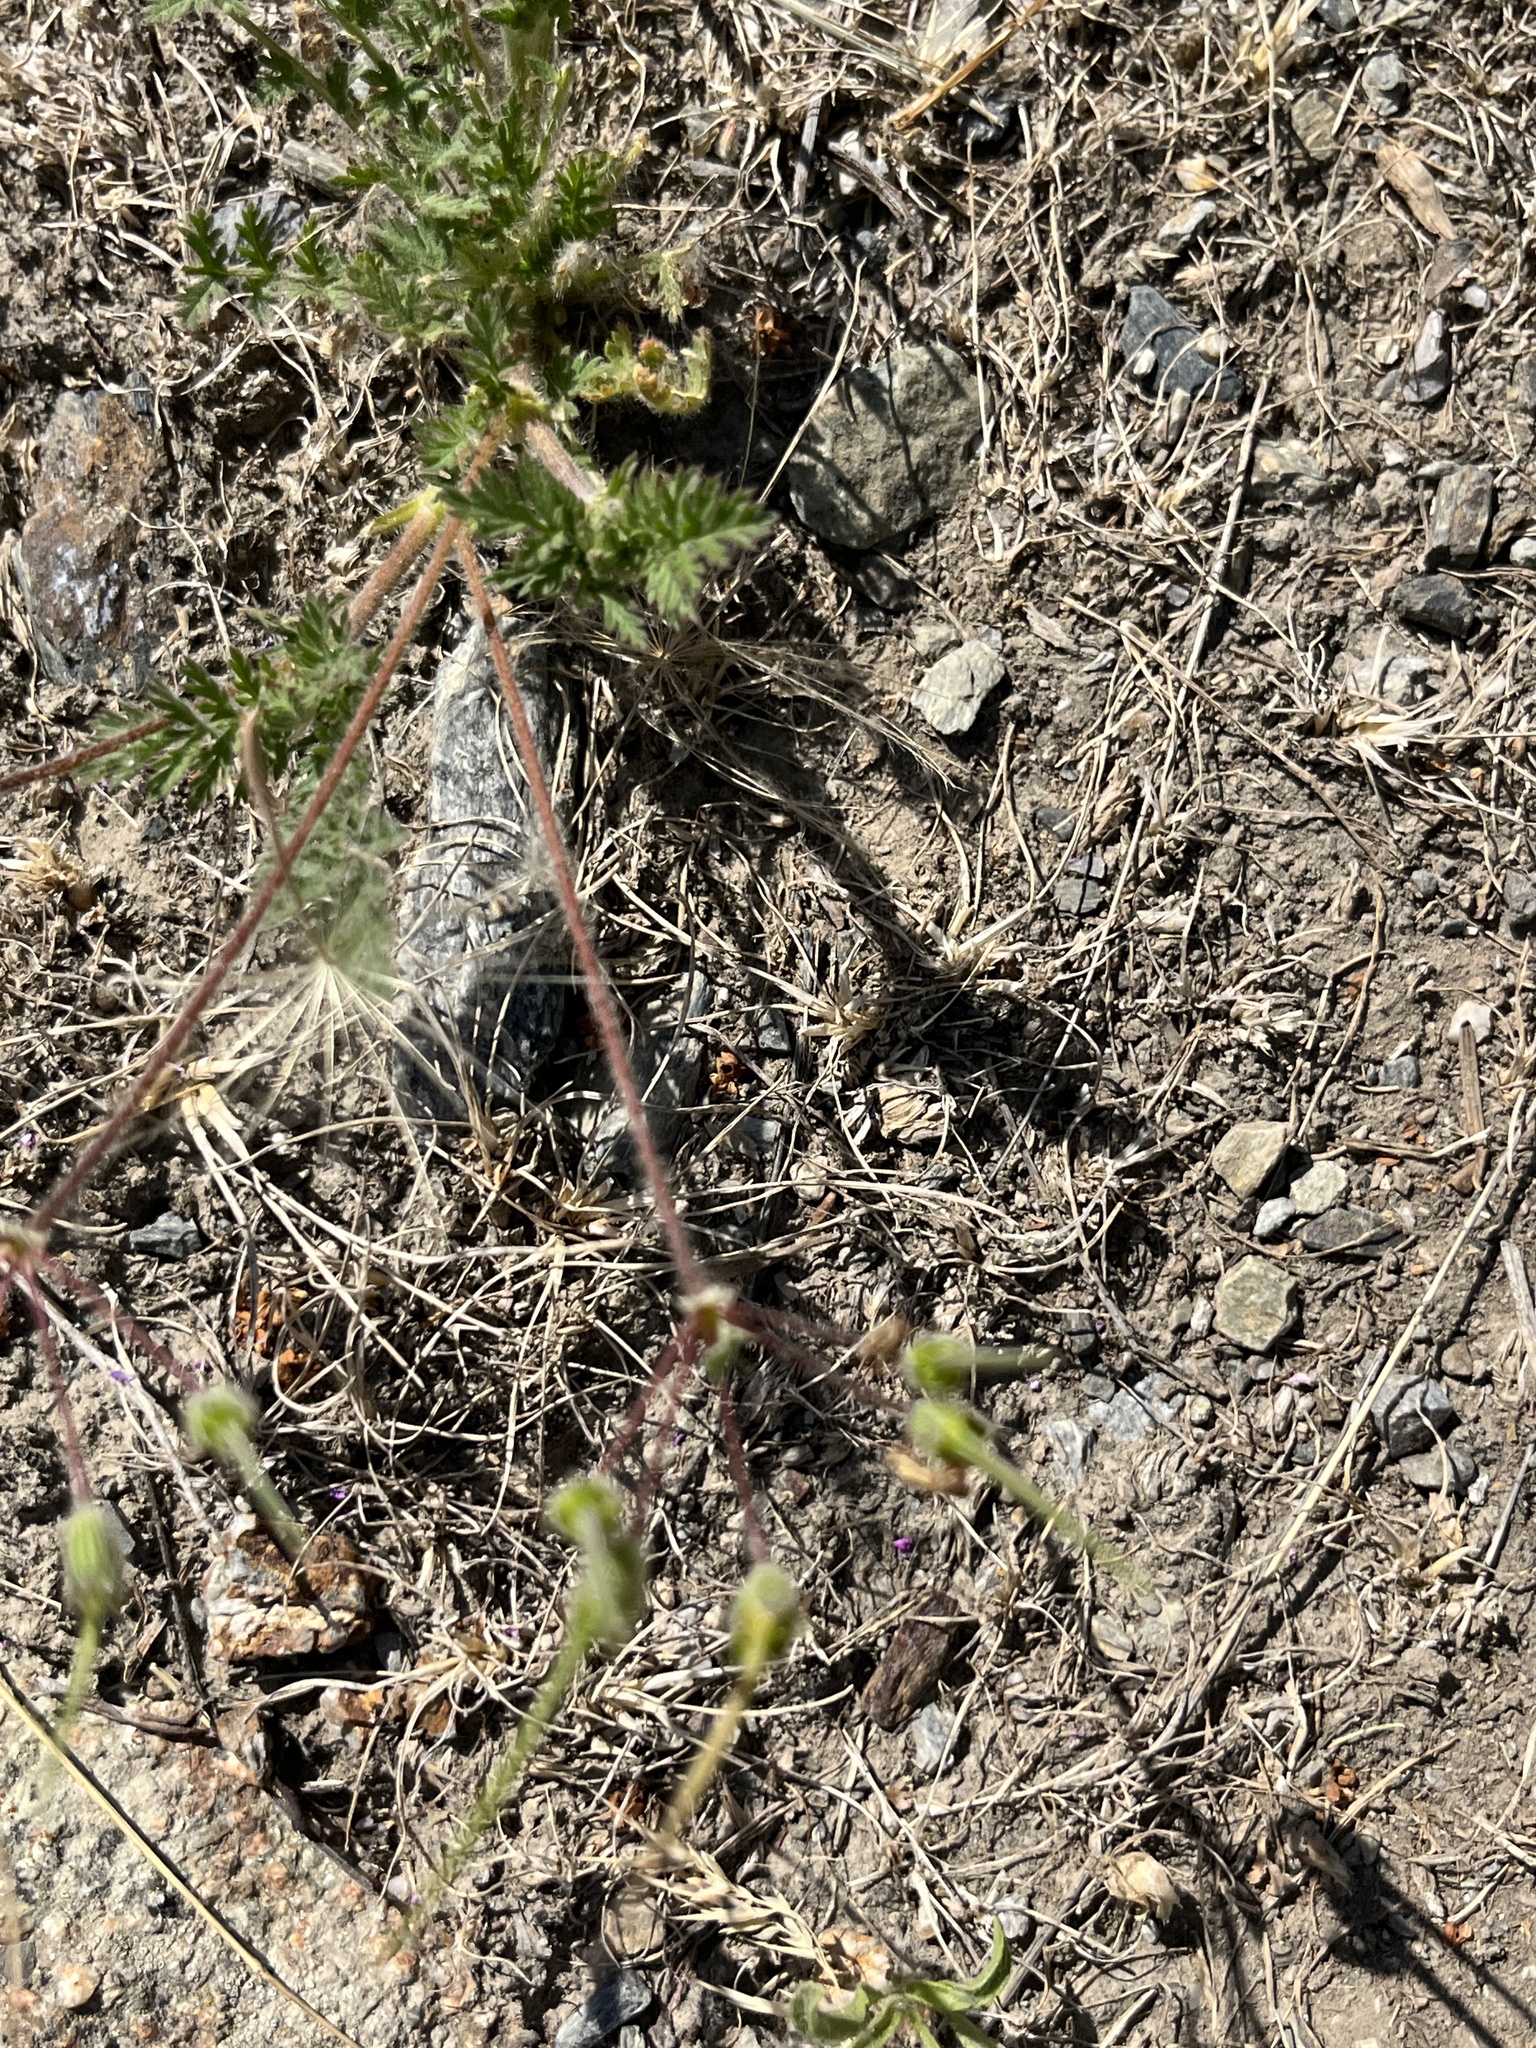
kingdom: Plantae
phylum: Tracheophyta
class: Magnoliopsida
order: Geraniales
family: Geraniaceae
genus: Erodium
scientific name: Erodium cicutarium
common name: Common stork's-bill
